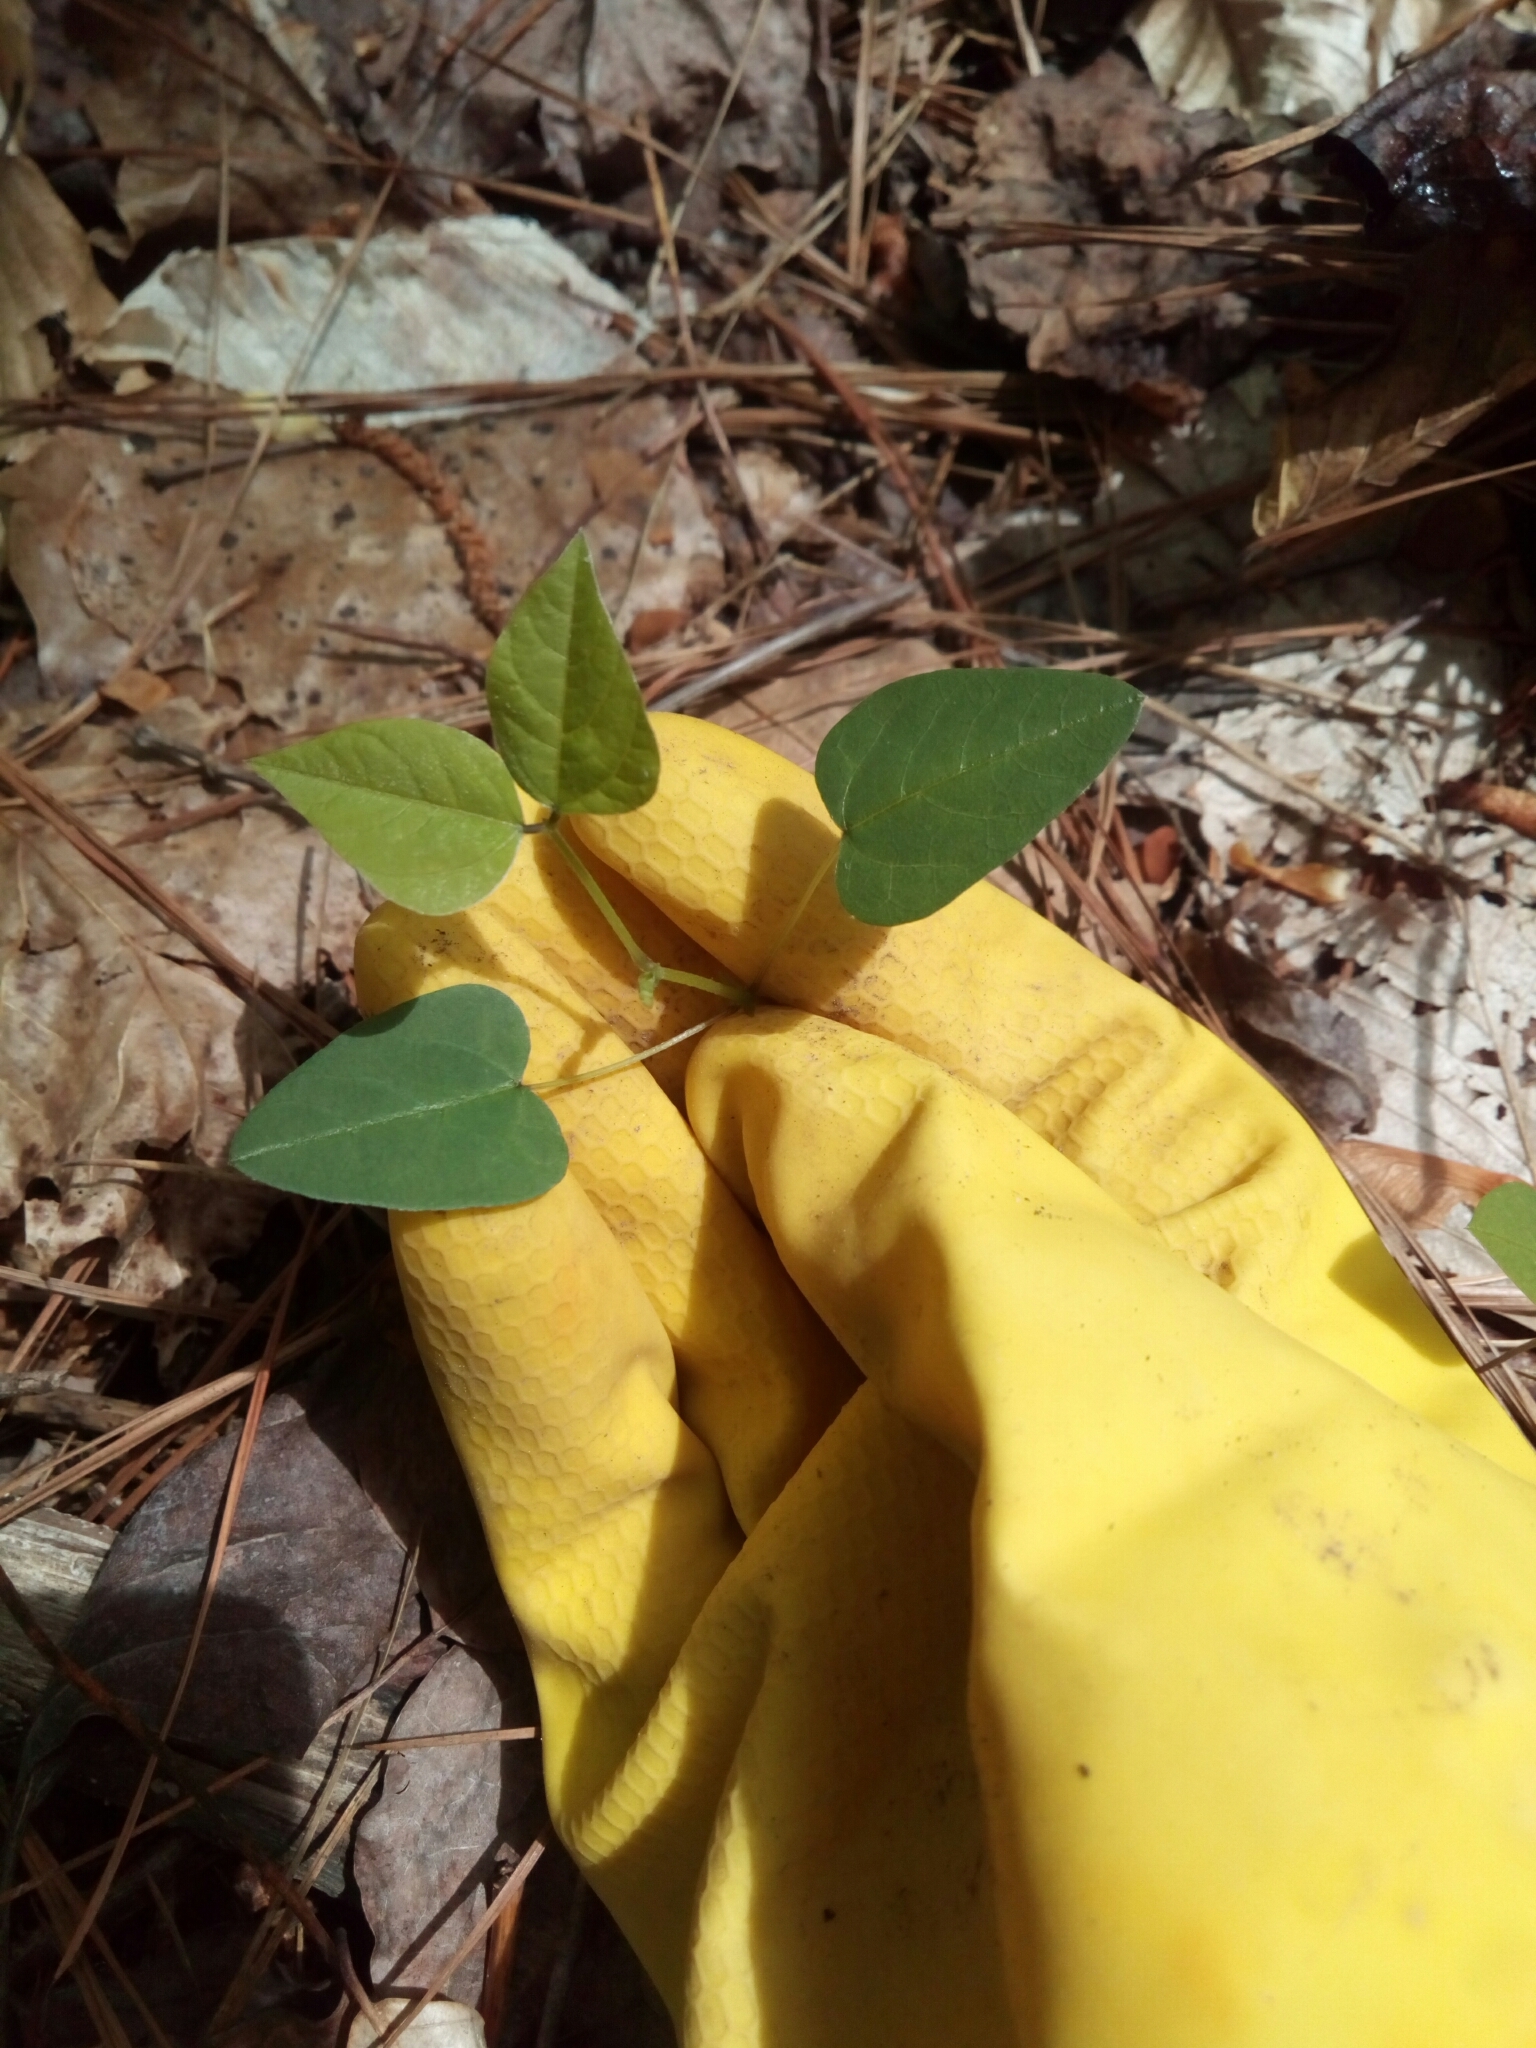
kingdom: Plantae
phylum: Tracheophyta
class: Magnoliopsida
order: Fabales
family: Fabaceae
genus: Amphicarpaea
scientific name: Amphicarpaea bracteata
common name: American hog peanut
